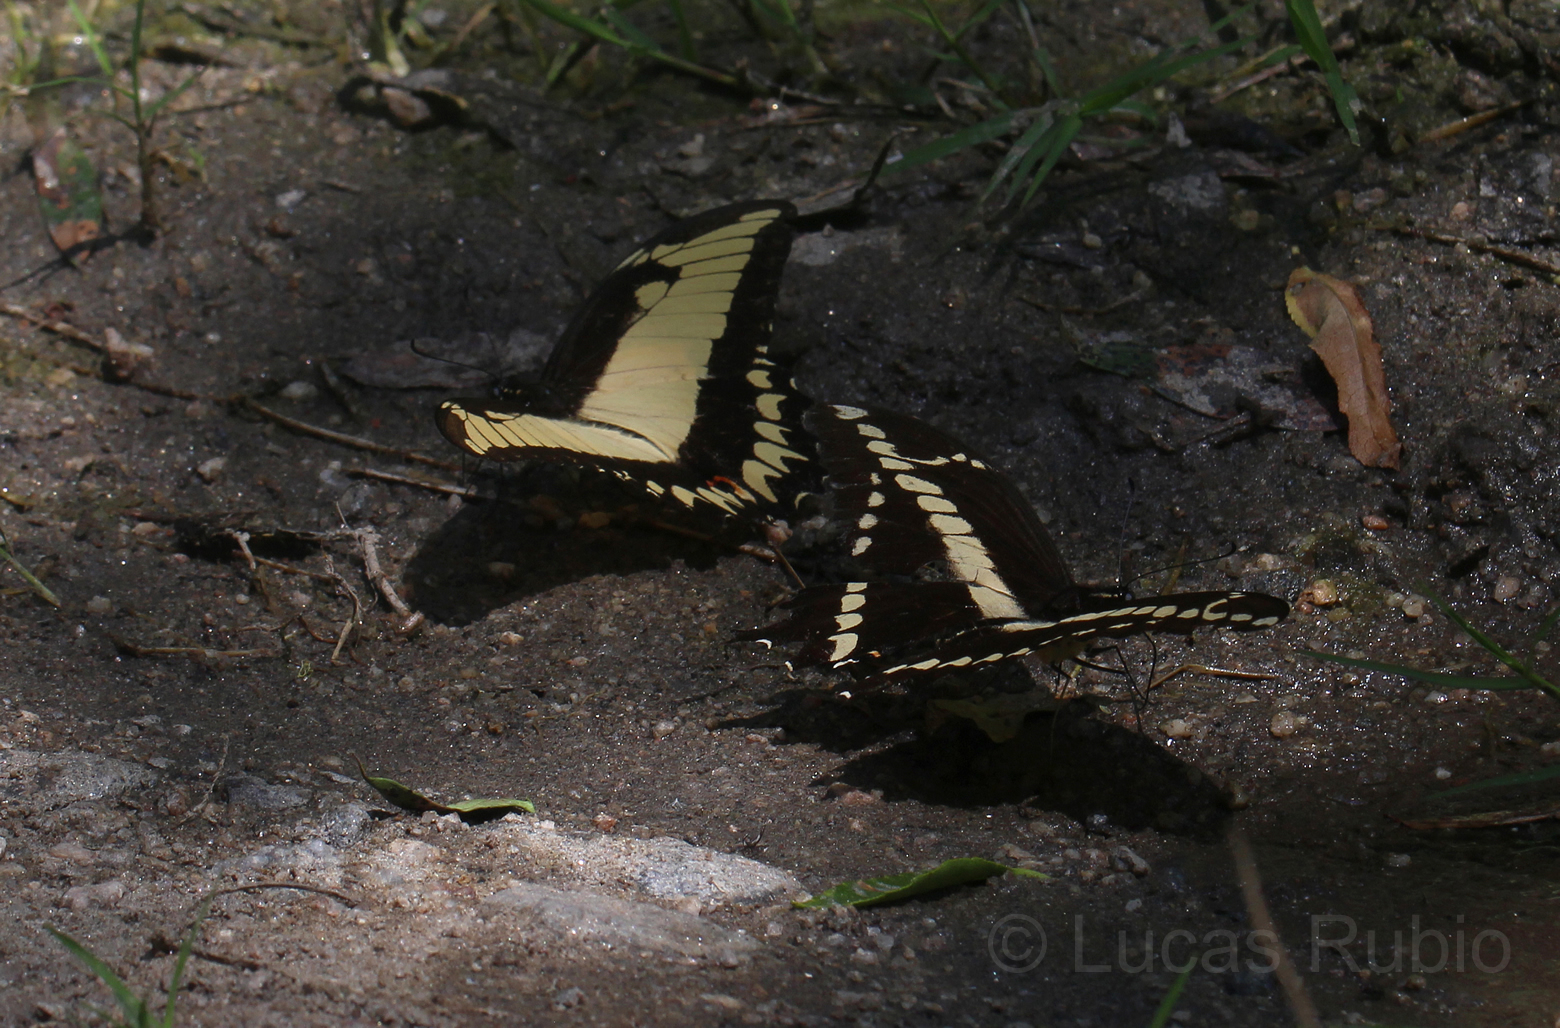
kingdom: Animalia
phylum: Arthropoda
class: Insecta
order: Lepidoptera
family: Papilionidae
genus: Papilio
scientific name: Papilio astyalus
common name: Astyalus swallowtail
